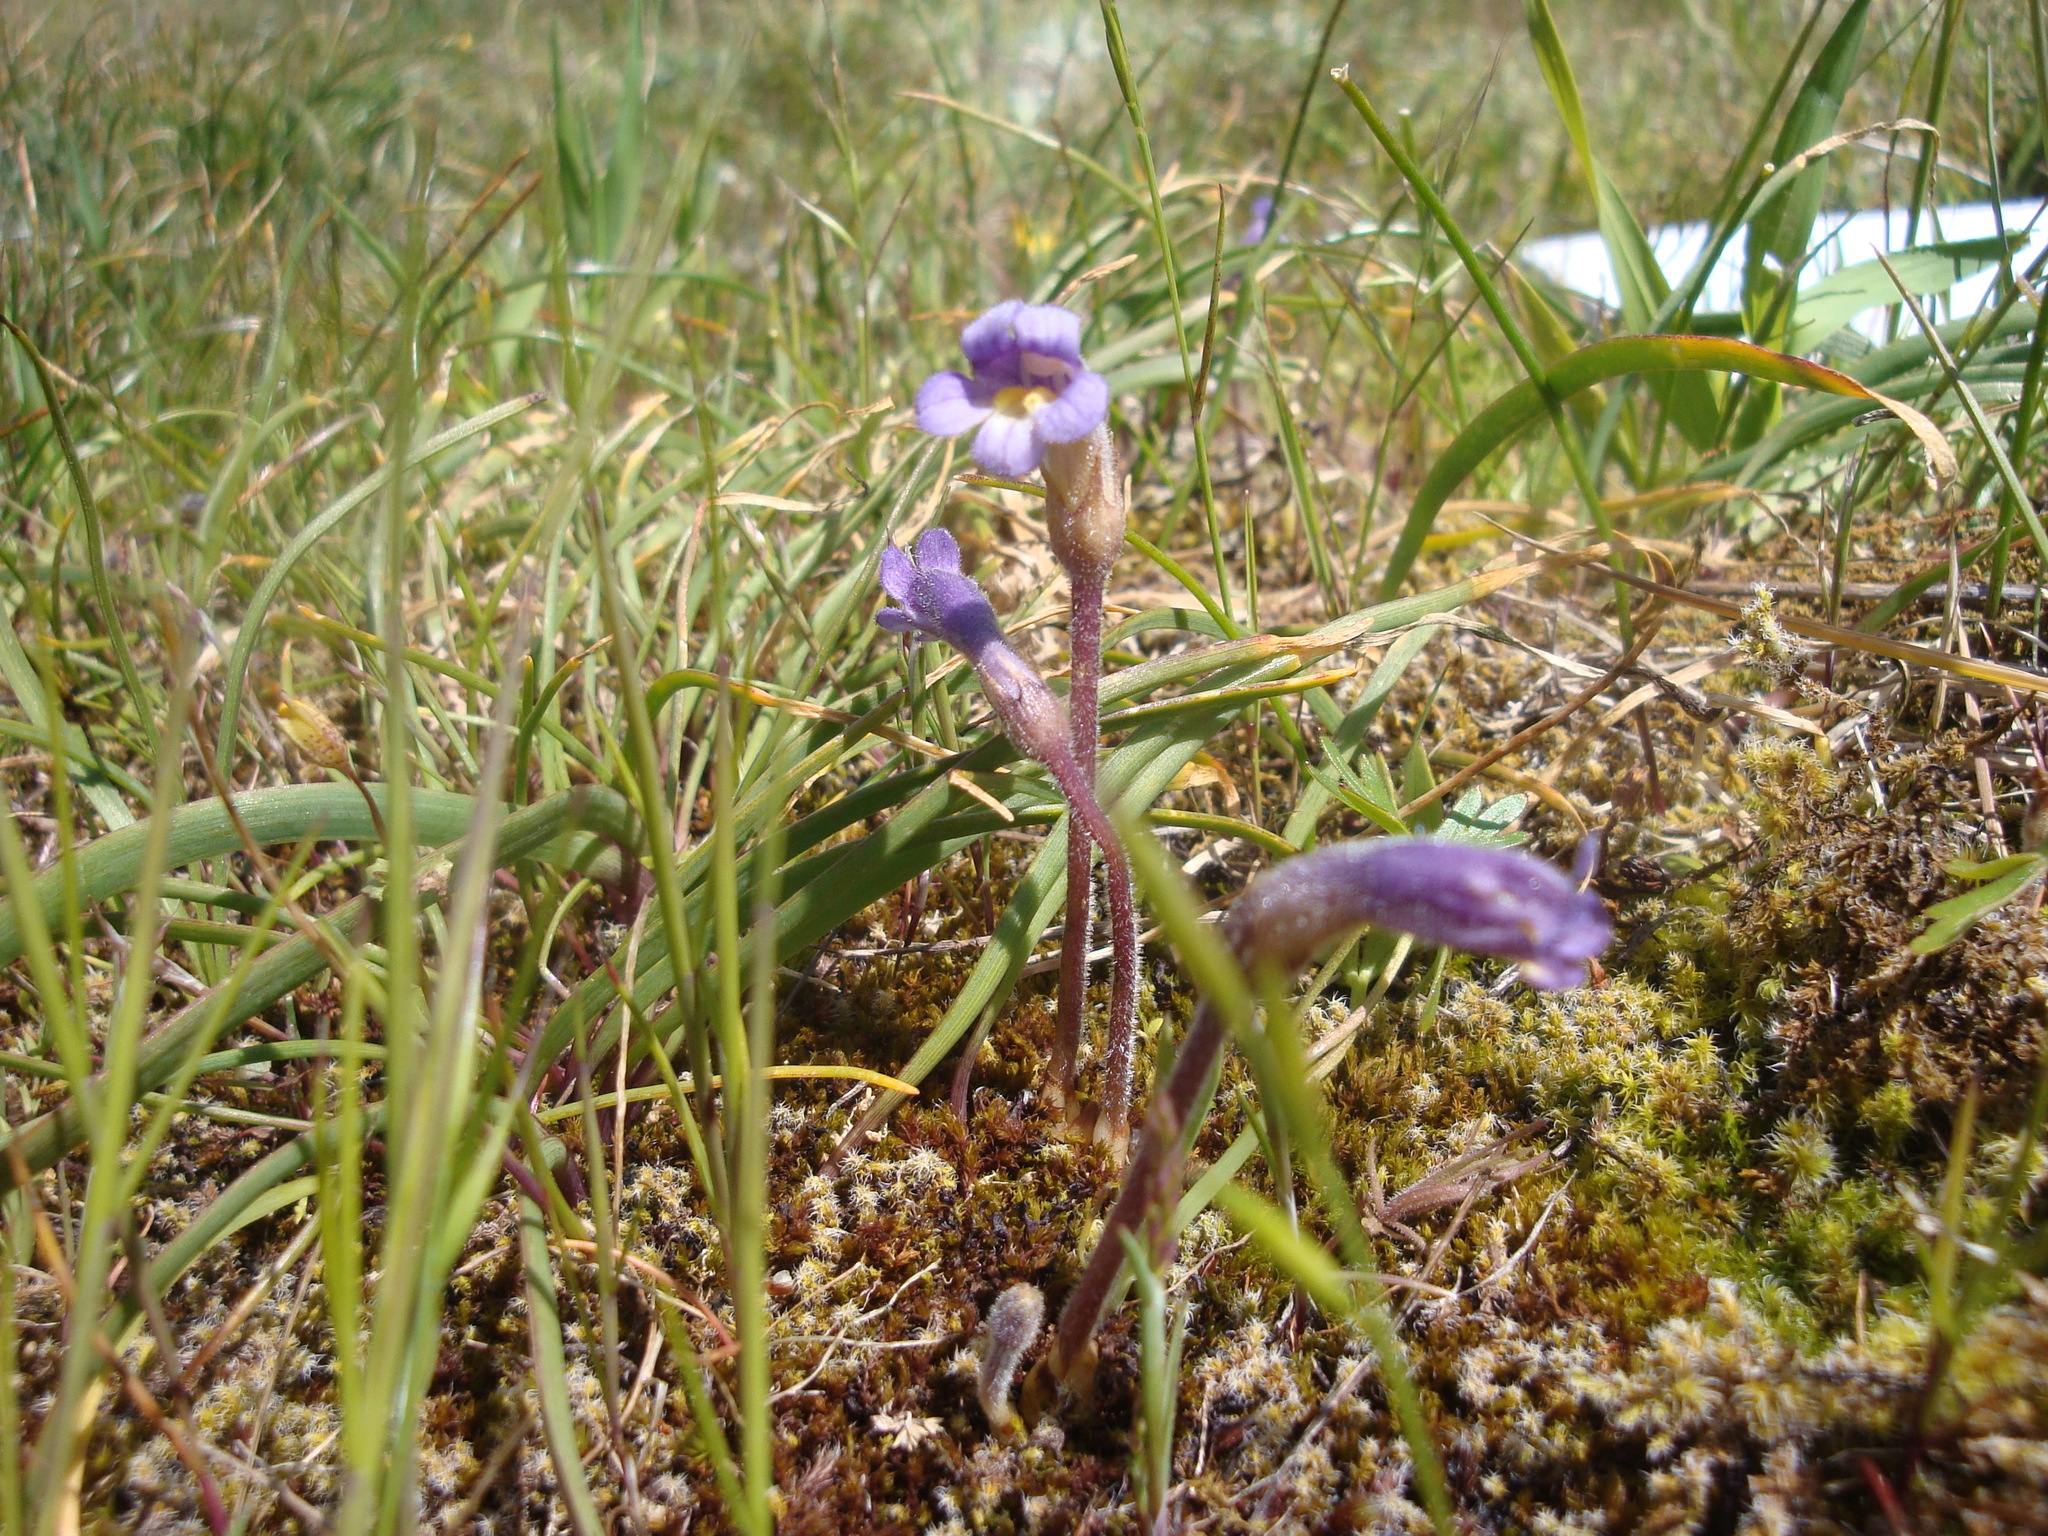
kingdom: Plantae
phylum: Tracheophyta
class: Magnoliopsida
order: Lamiales
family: Orobanchaceae
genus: Aphyllon
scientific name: Aphyllon uniflorum
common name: One-flowered broomrape
